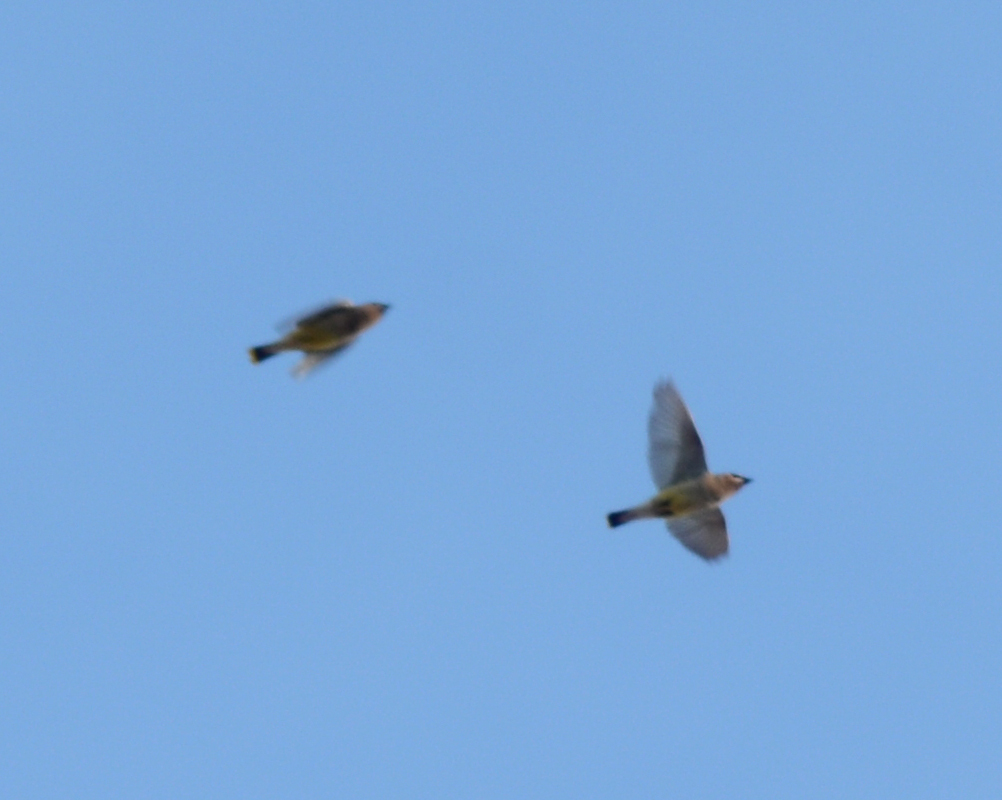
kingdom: Animalia
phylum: Chordata
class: Aves
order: Passeriformes
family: Bombycillidae
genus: Bombycilla
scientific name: Bombycilla cedrorum
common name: Cedar waxwing
